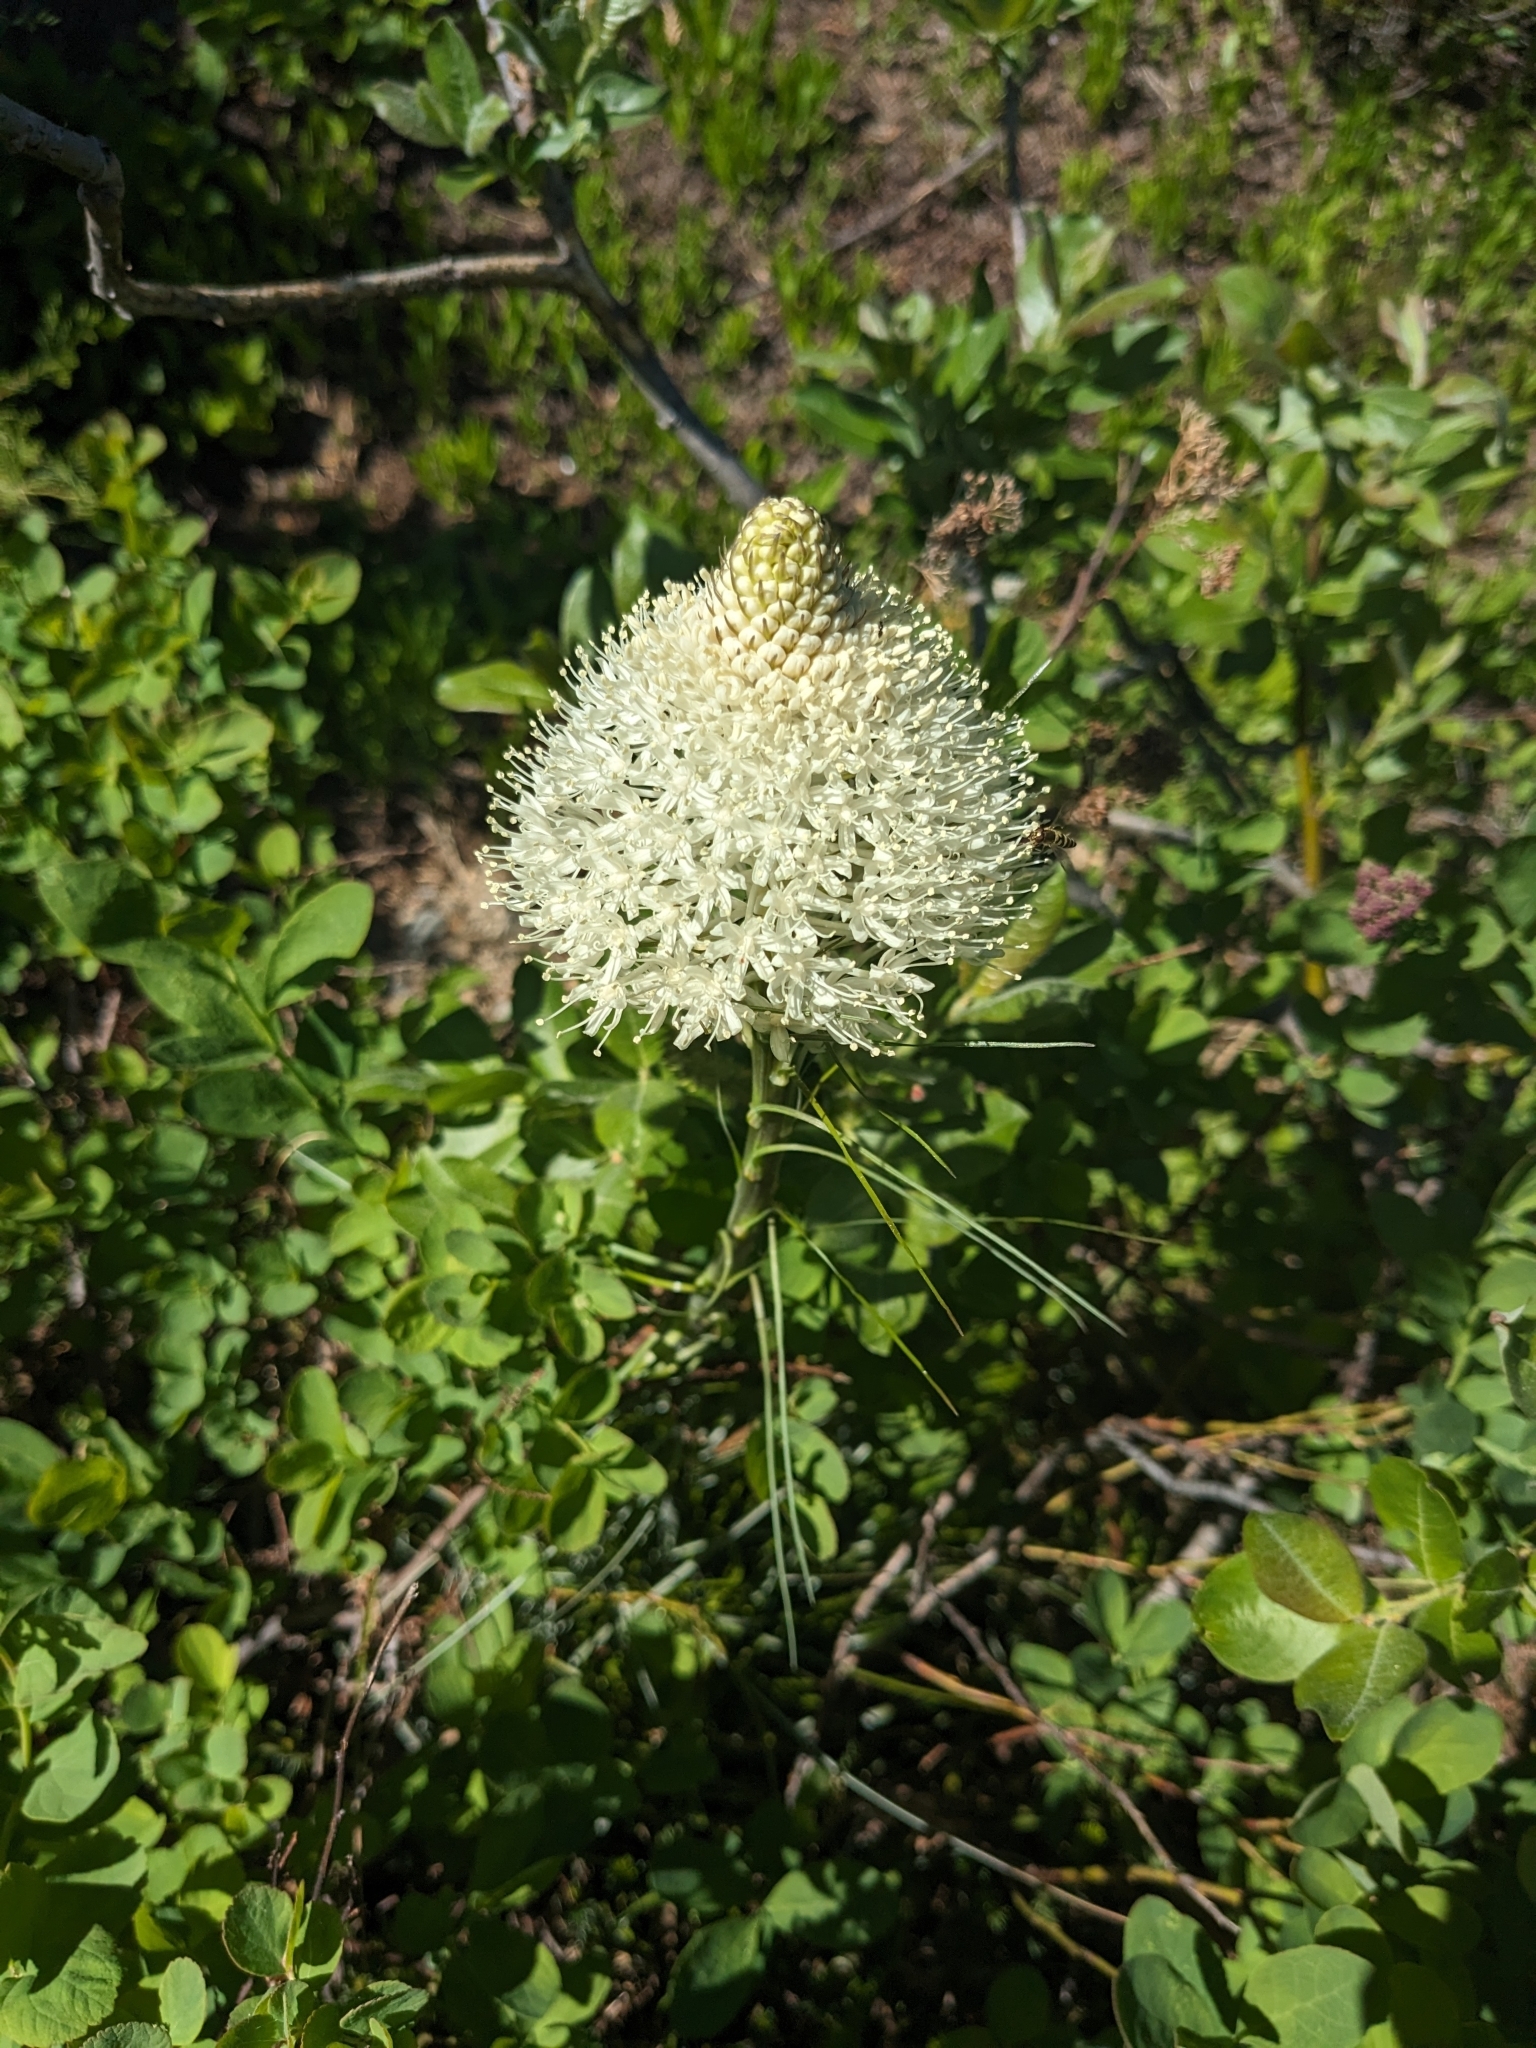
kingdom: Plantae
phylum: Tracheophyta
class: Liliopsida
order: Liliales
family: Melanthiaceae
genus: Xerophyllum
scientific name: Xerophyllum tenax
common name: Bear-grass
